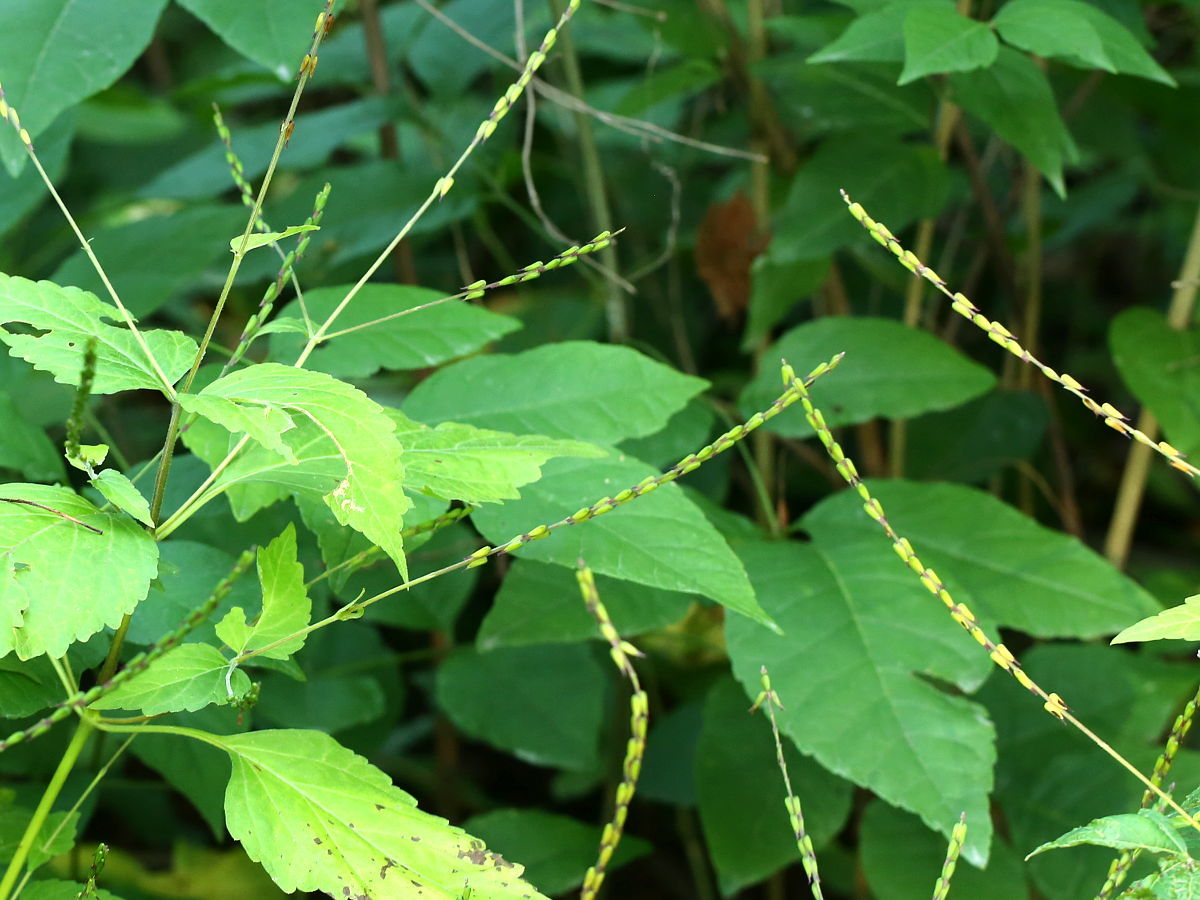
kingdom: Plantae
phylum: Tracheophyta
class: Magnoliopsida
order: Lamiales
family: Phrymaceae
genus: Phryma
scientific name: Phryma leptostachya
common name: American lopseed
